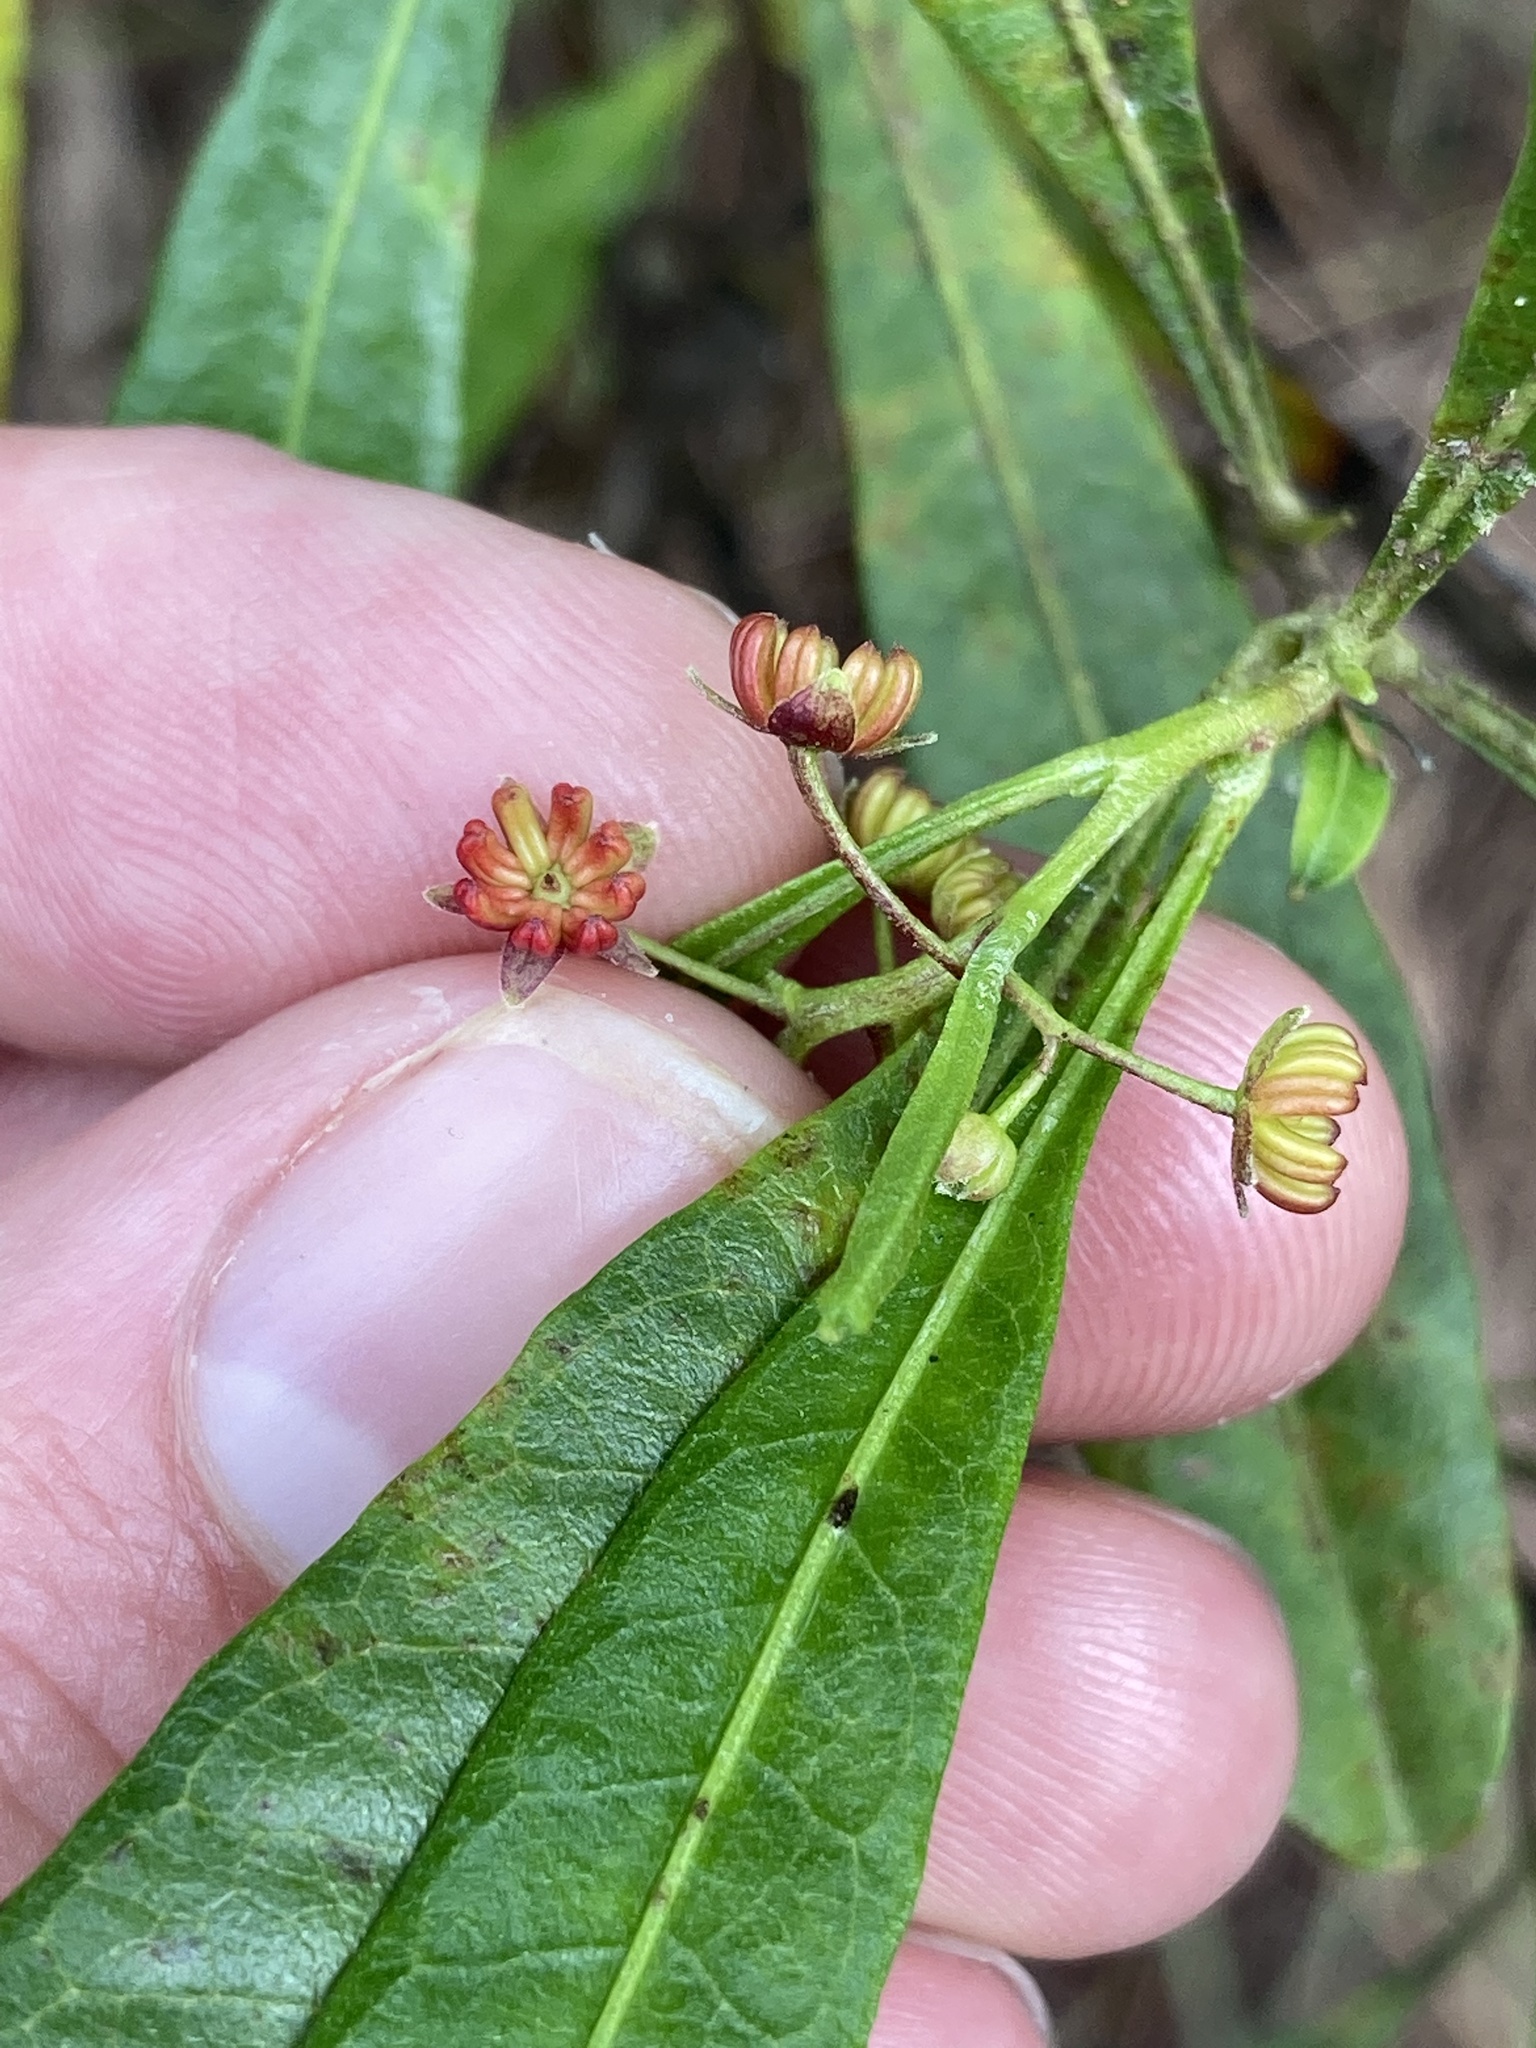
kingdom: Plantae
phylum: Tracheophyta
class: Magnoliopsida
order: Sapindales
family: Sapindaceae
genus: Dodonaea
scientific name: Dodonaea viscosa
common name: Hopbush
